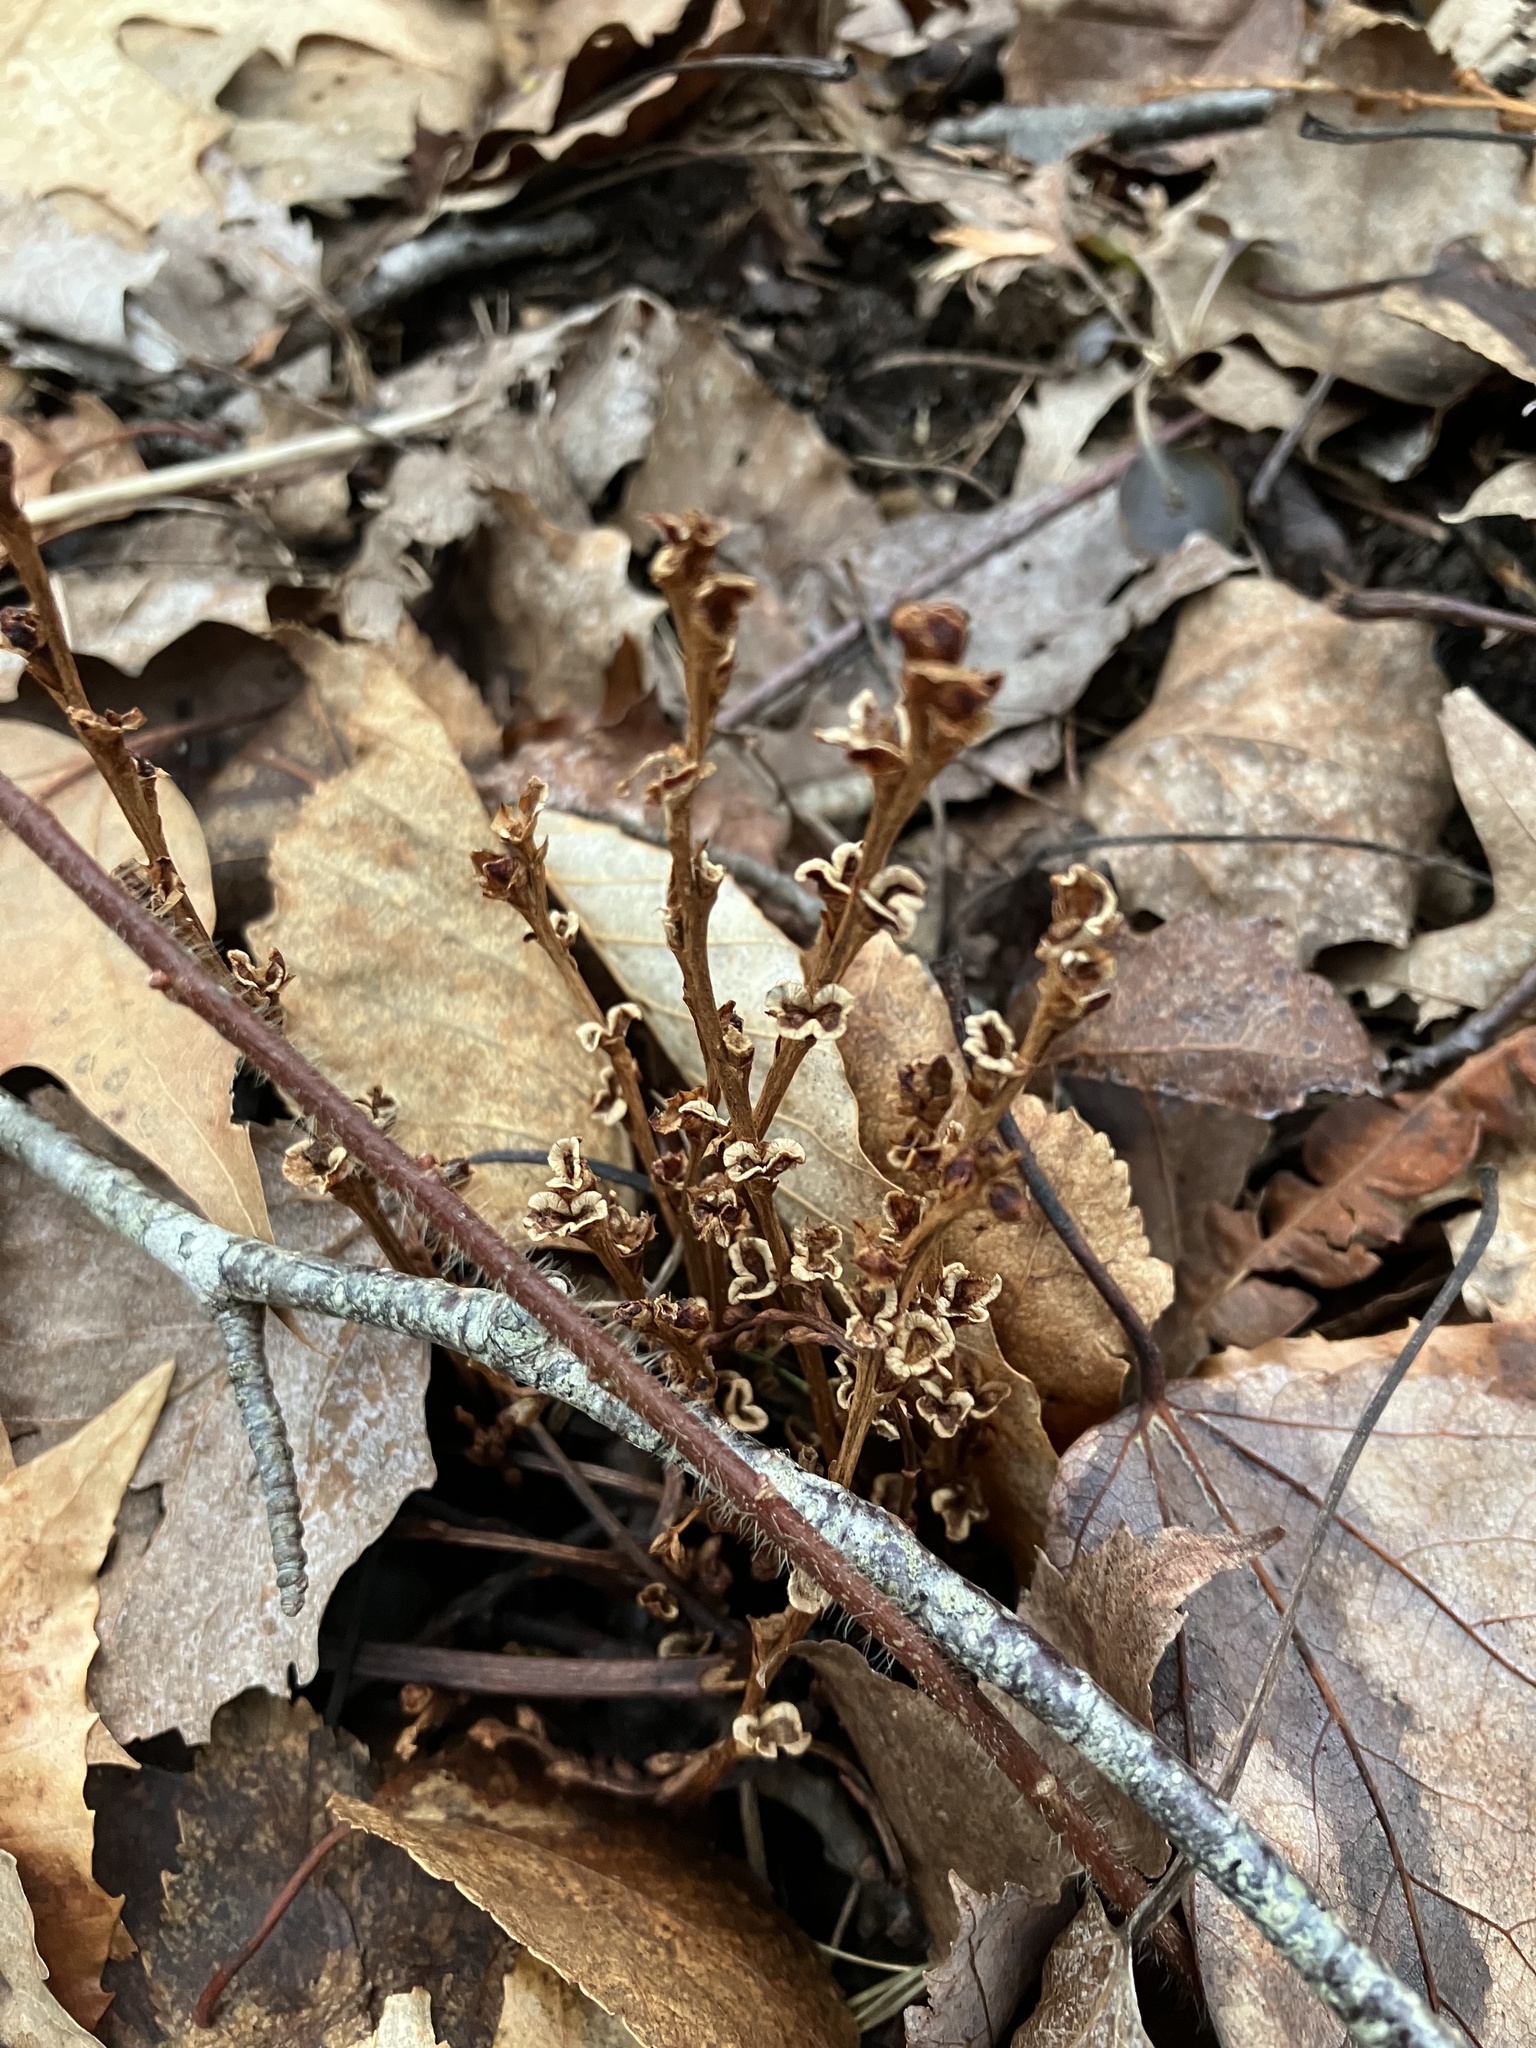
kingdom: Plantae
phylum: Tracheophyta
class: Magnoliopsida
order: Lamiales
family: Orobanchaceae
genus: Epifagus
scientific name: Epifagus virginiana
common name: Beechdrops
